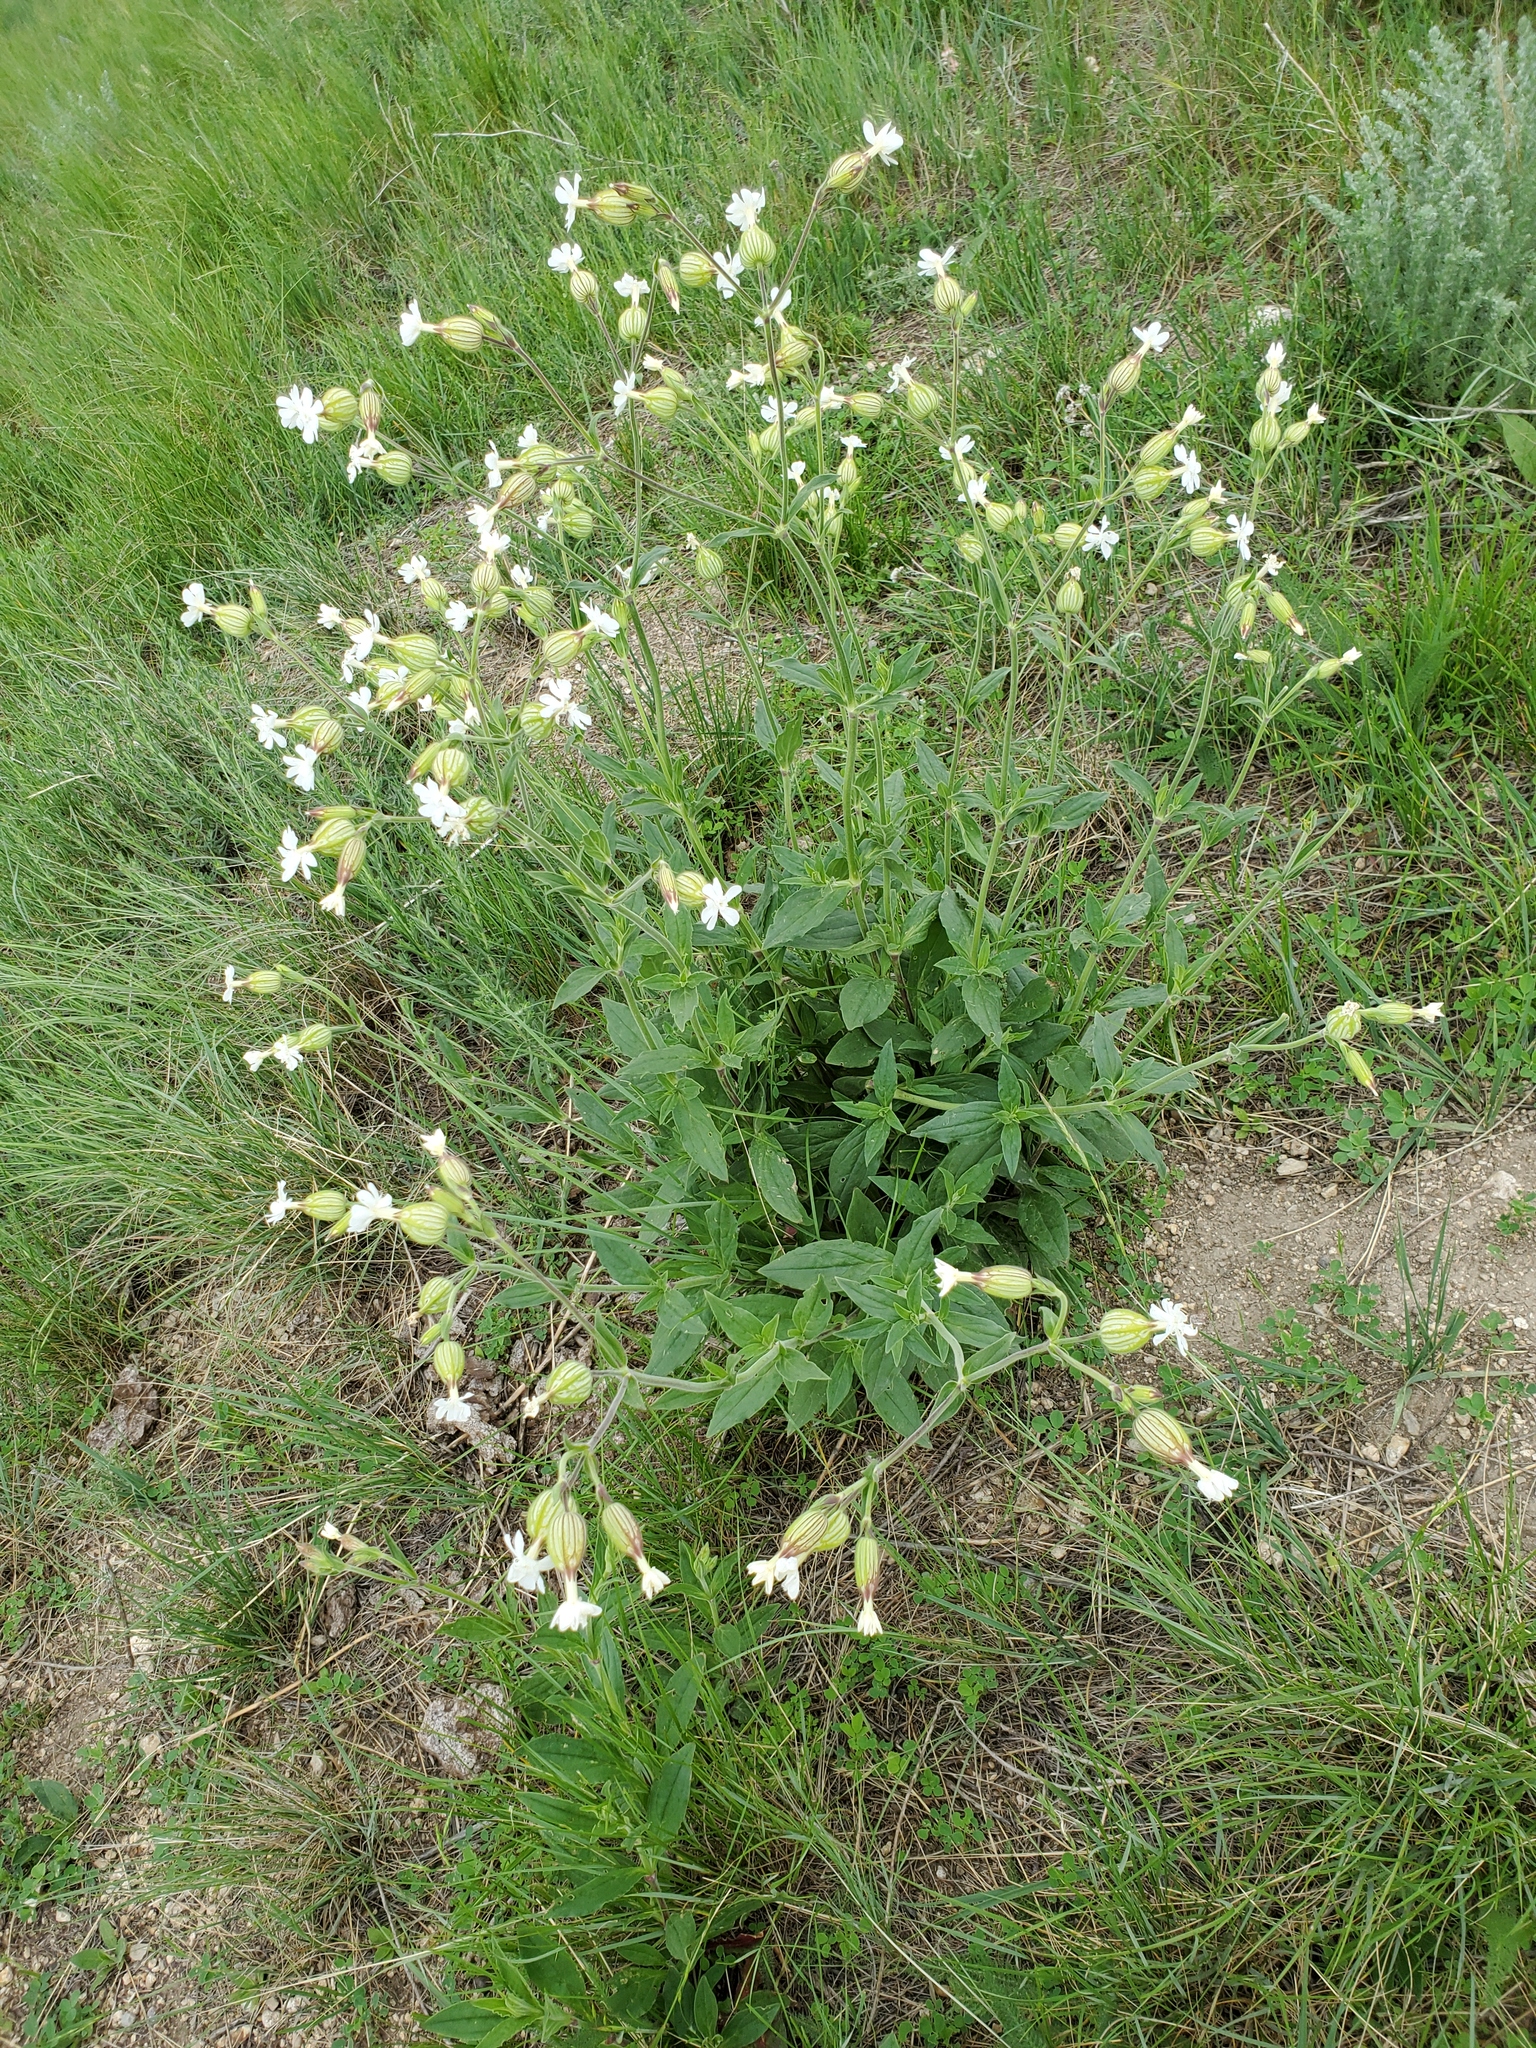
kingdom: Plantae
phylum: Tracheophyta
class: Magnoliopsida
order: Caryophyllales
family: Caryophyllaceae
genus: Silene
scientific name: Silene latifolia
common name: White campion
